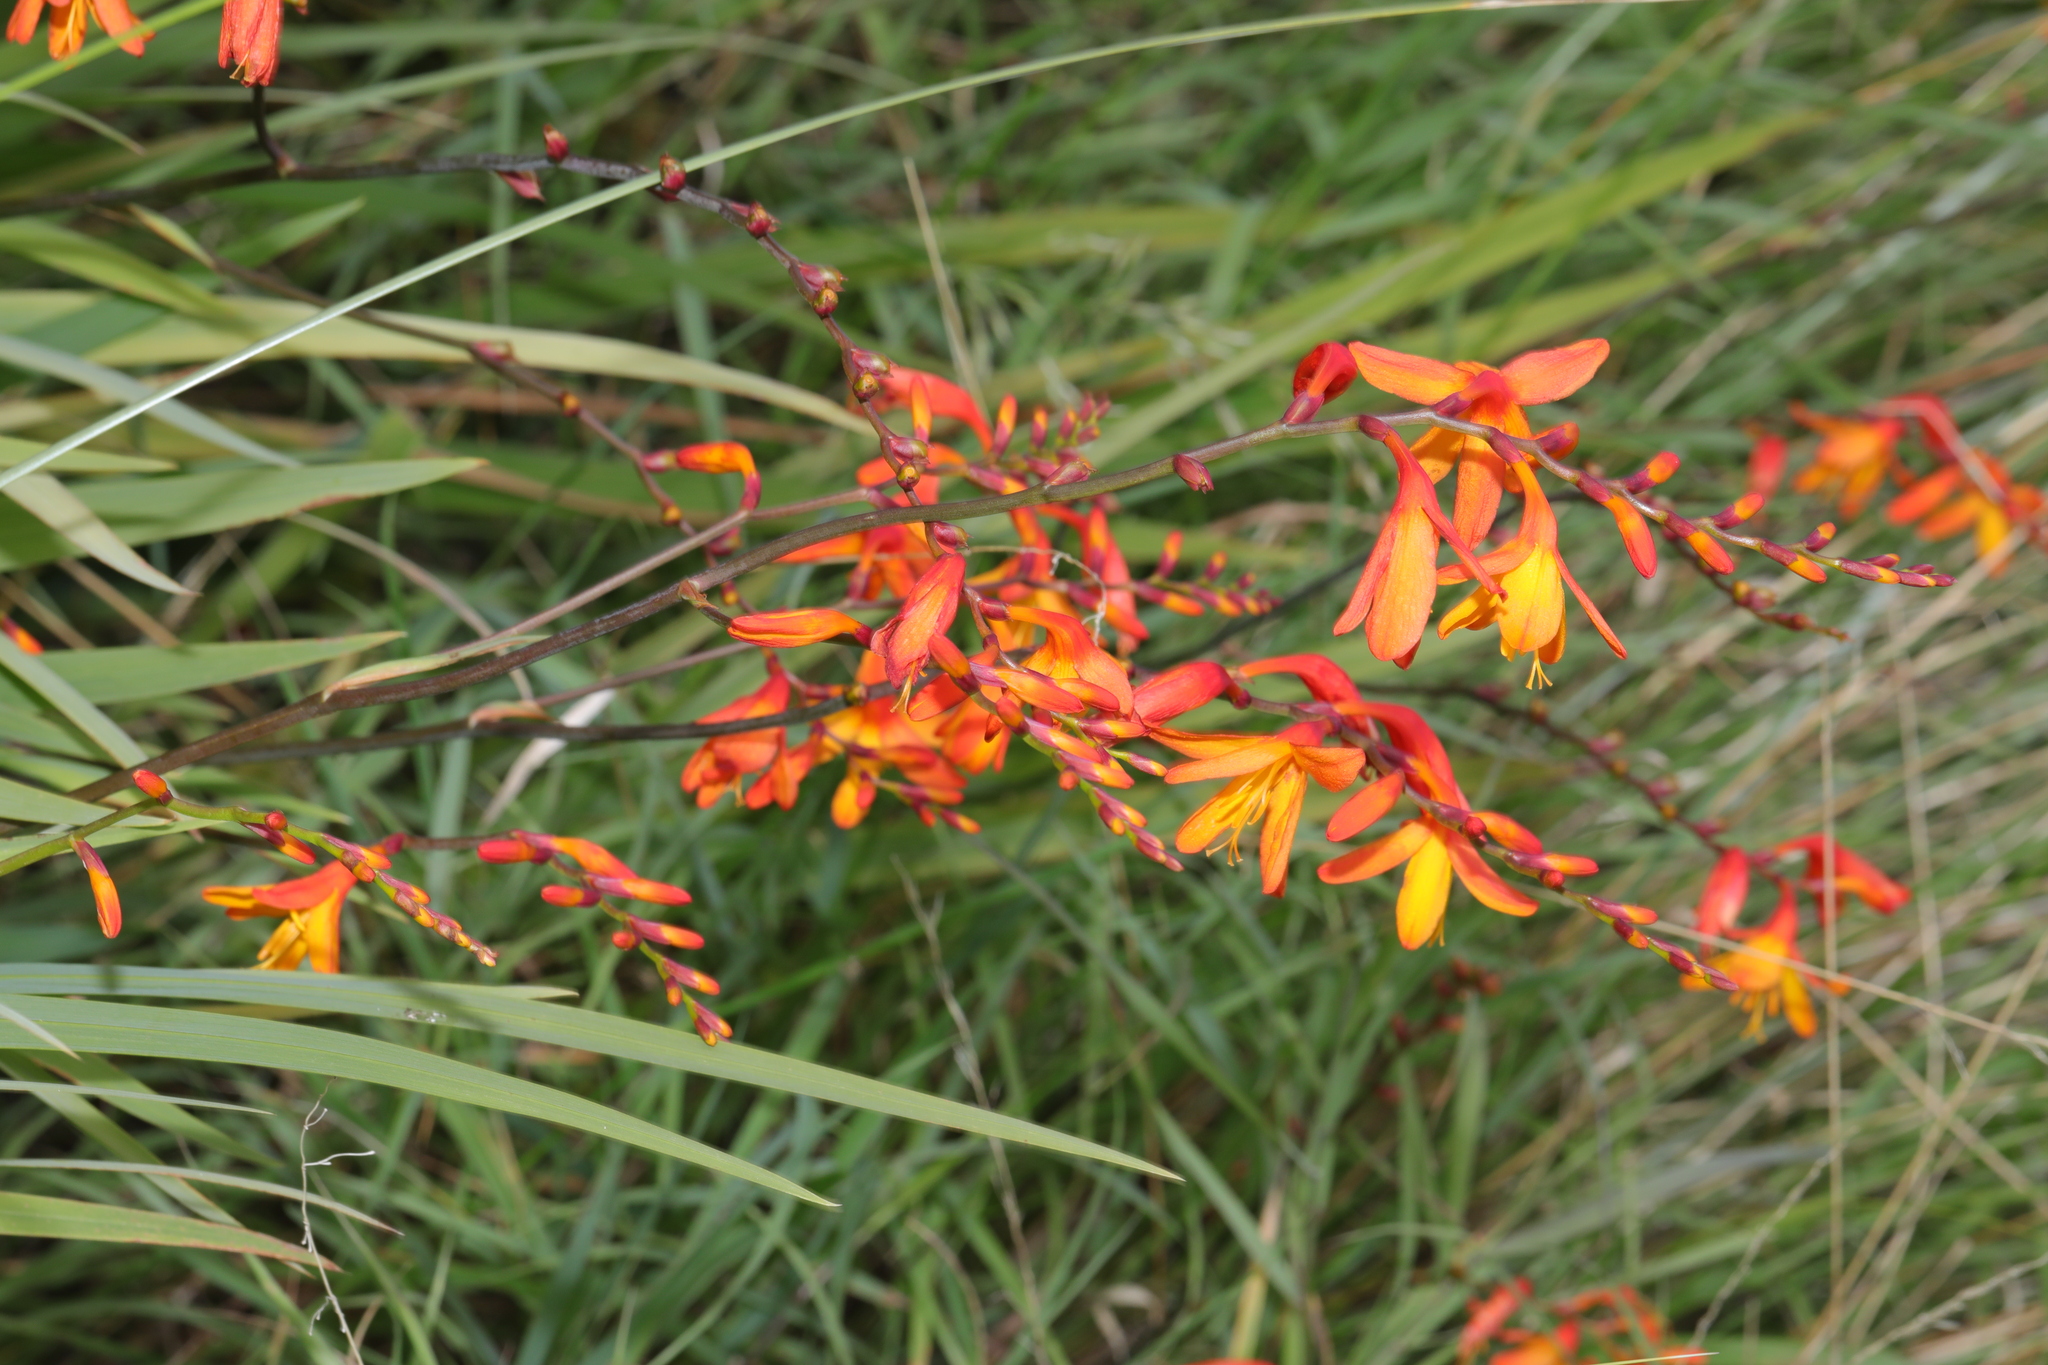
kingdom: Plantae
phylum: Tracheophyta
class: Liliopsida
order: Asparagales
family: Iridaceae
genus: Crocosmia
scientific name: Crocosmia crocosmiiflora
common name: Montbretia
